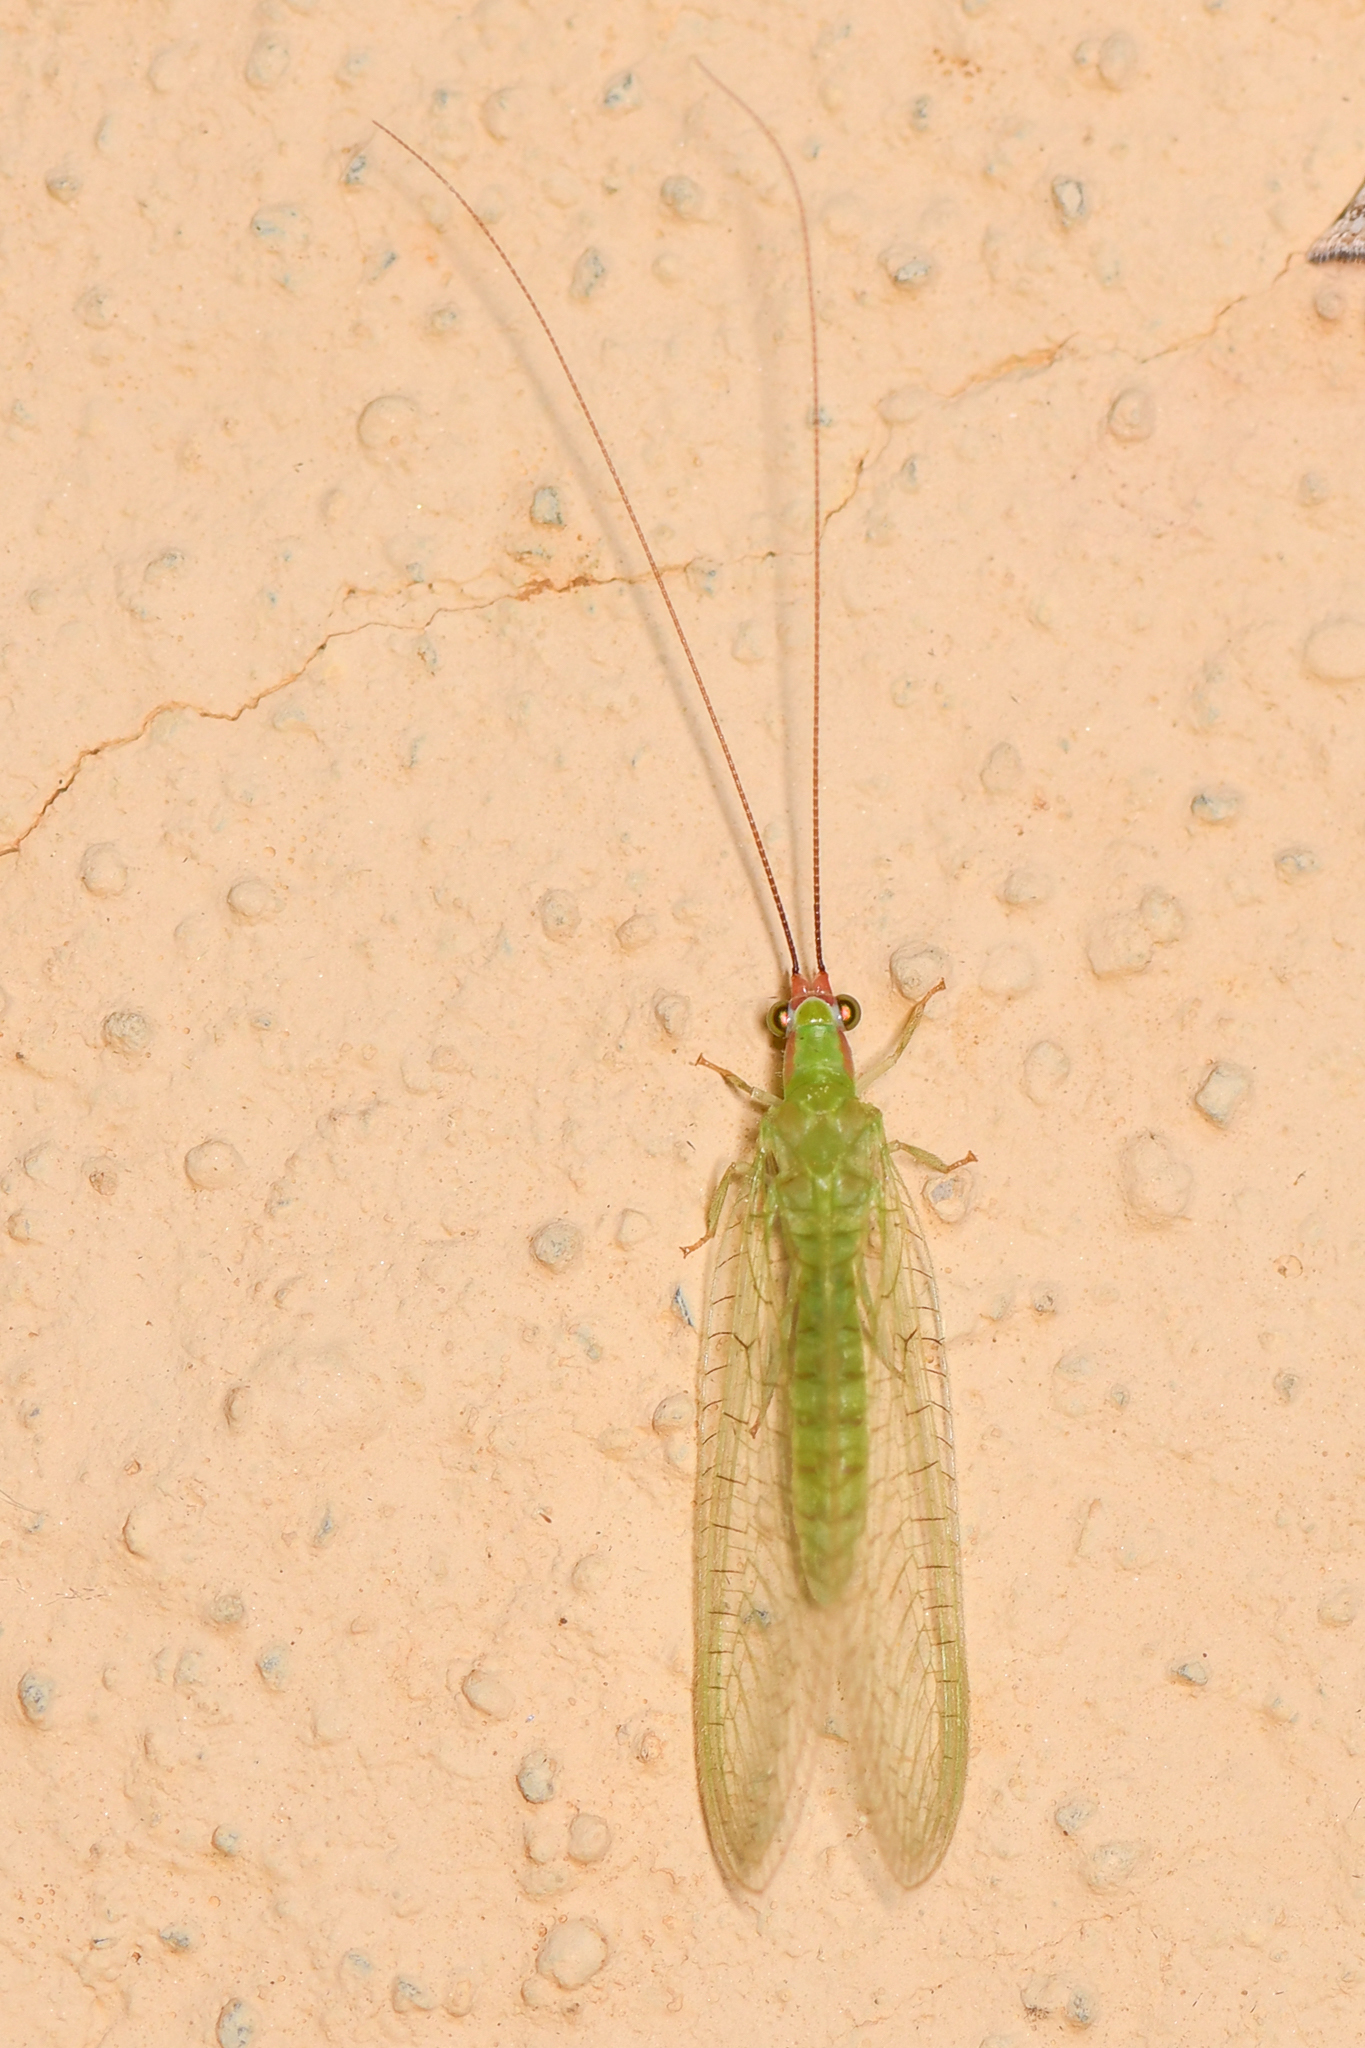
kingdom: Animalia
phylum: Arthropoda
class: Insecta
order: Neuroptera
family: Chrysopidae
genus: Ceraeochrysa
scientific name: Ceraeochrysa smithi
